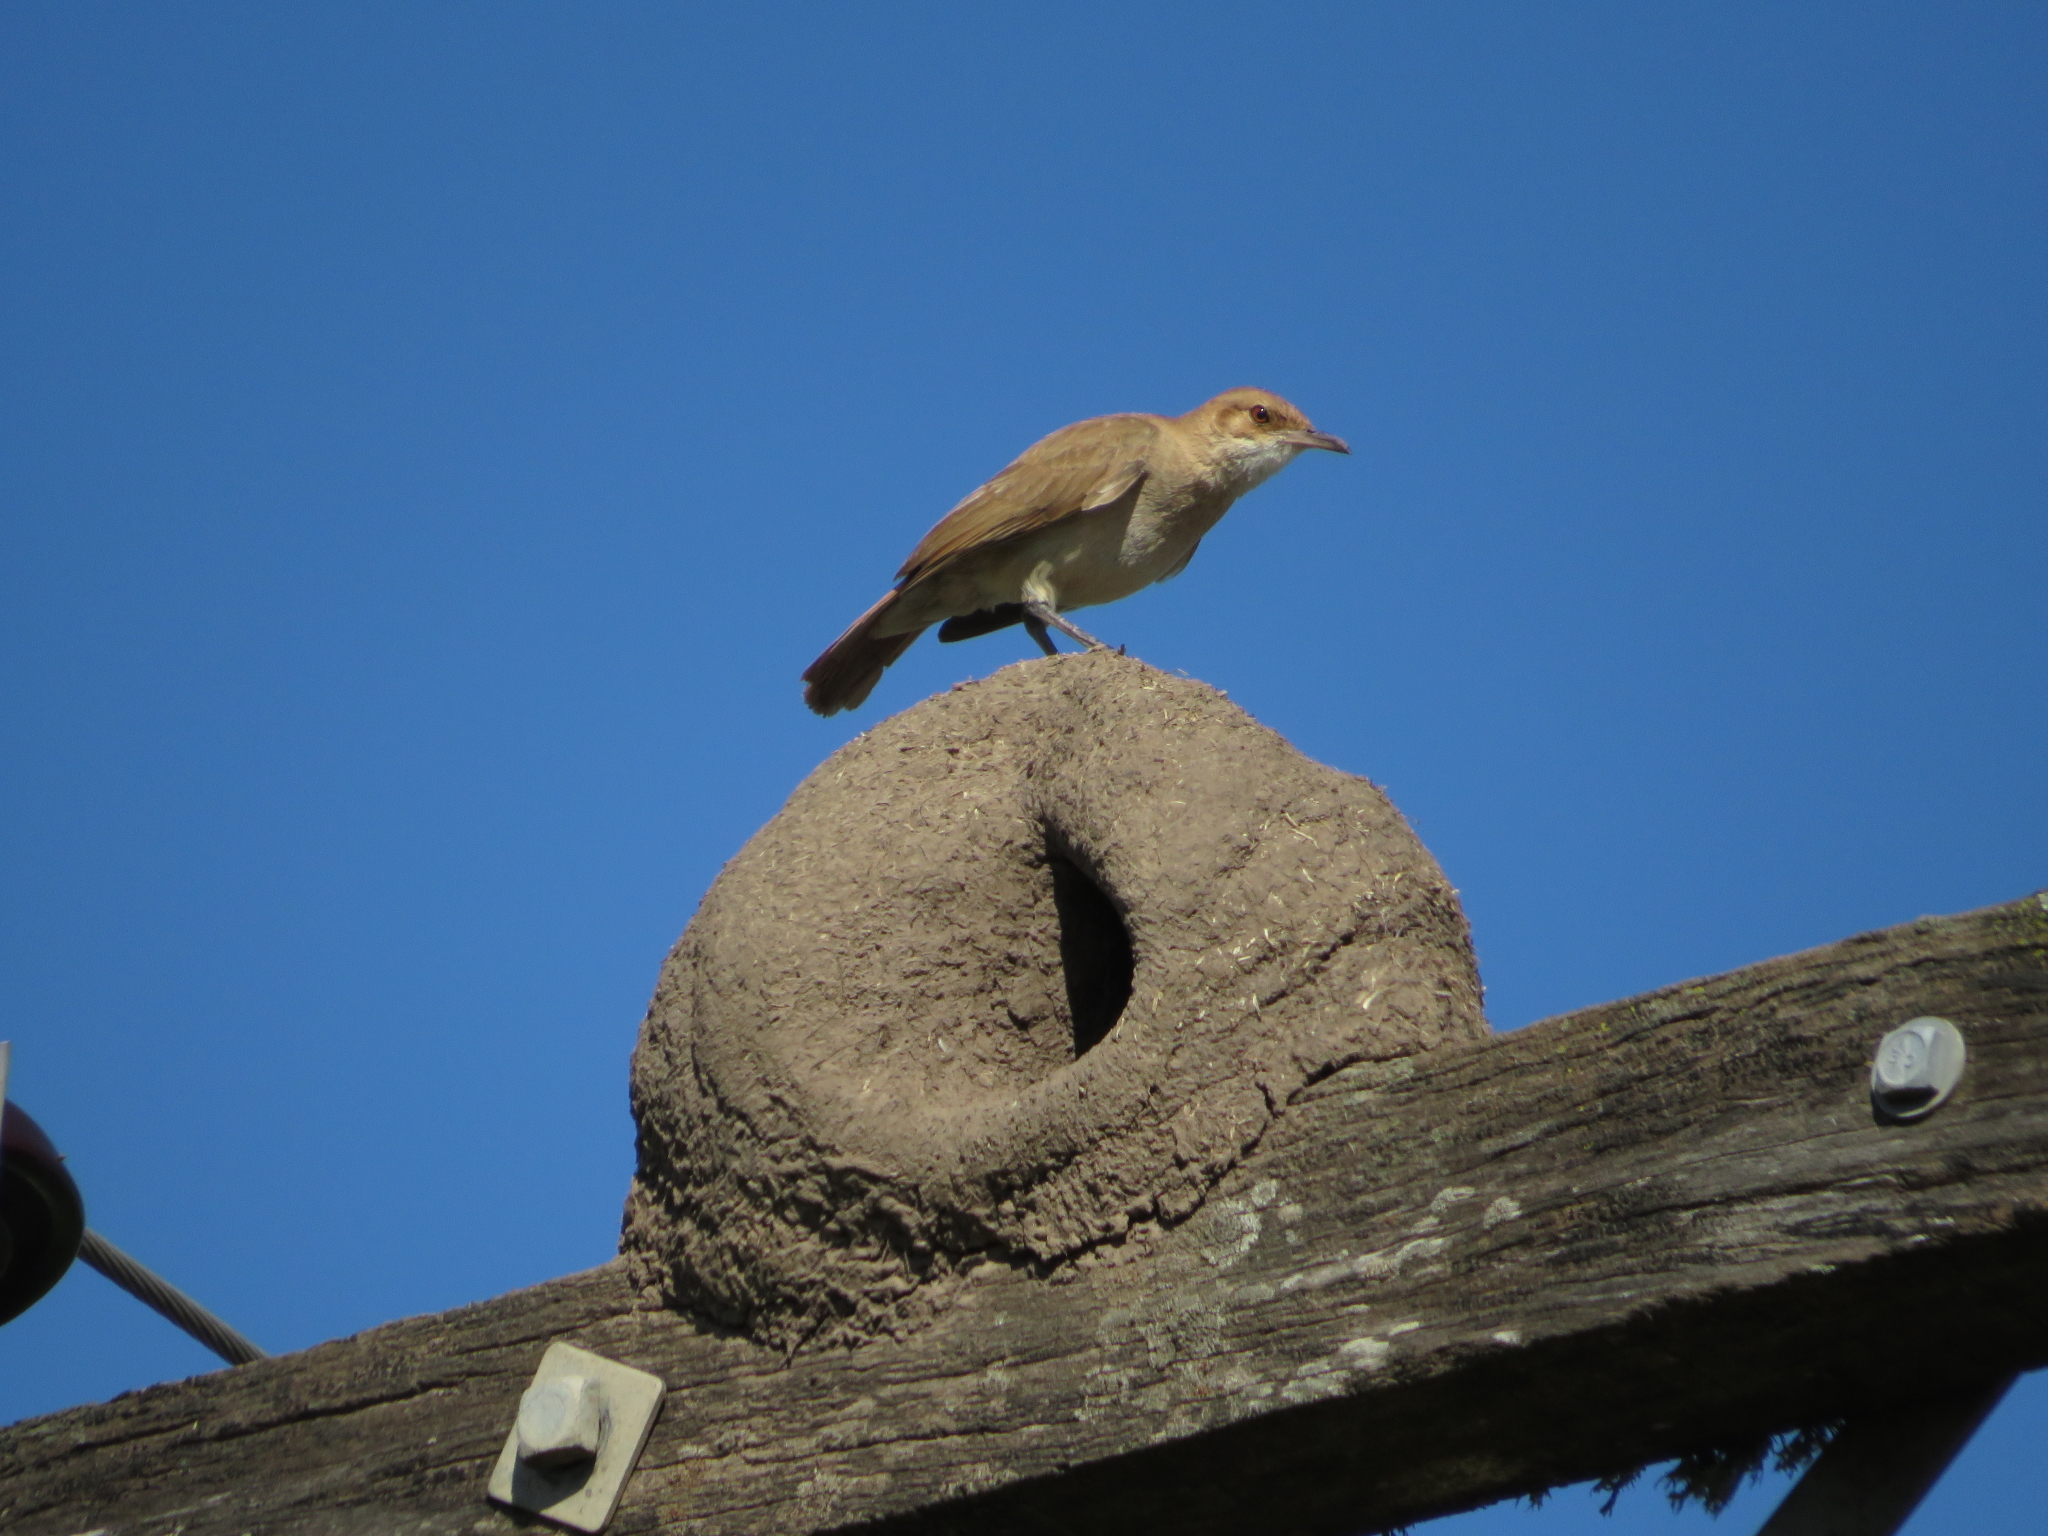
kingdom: Animalia
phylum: Chordata
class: Aves
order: Passeriformes
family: Furnariidae
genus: Furnarius
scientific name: Furnarius rufus
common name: Rufous hornero
